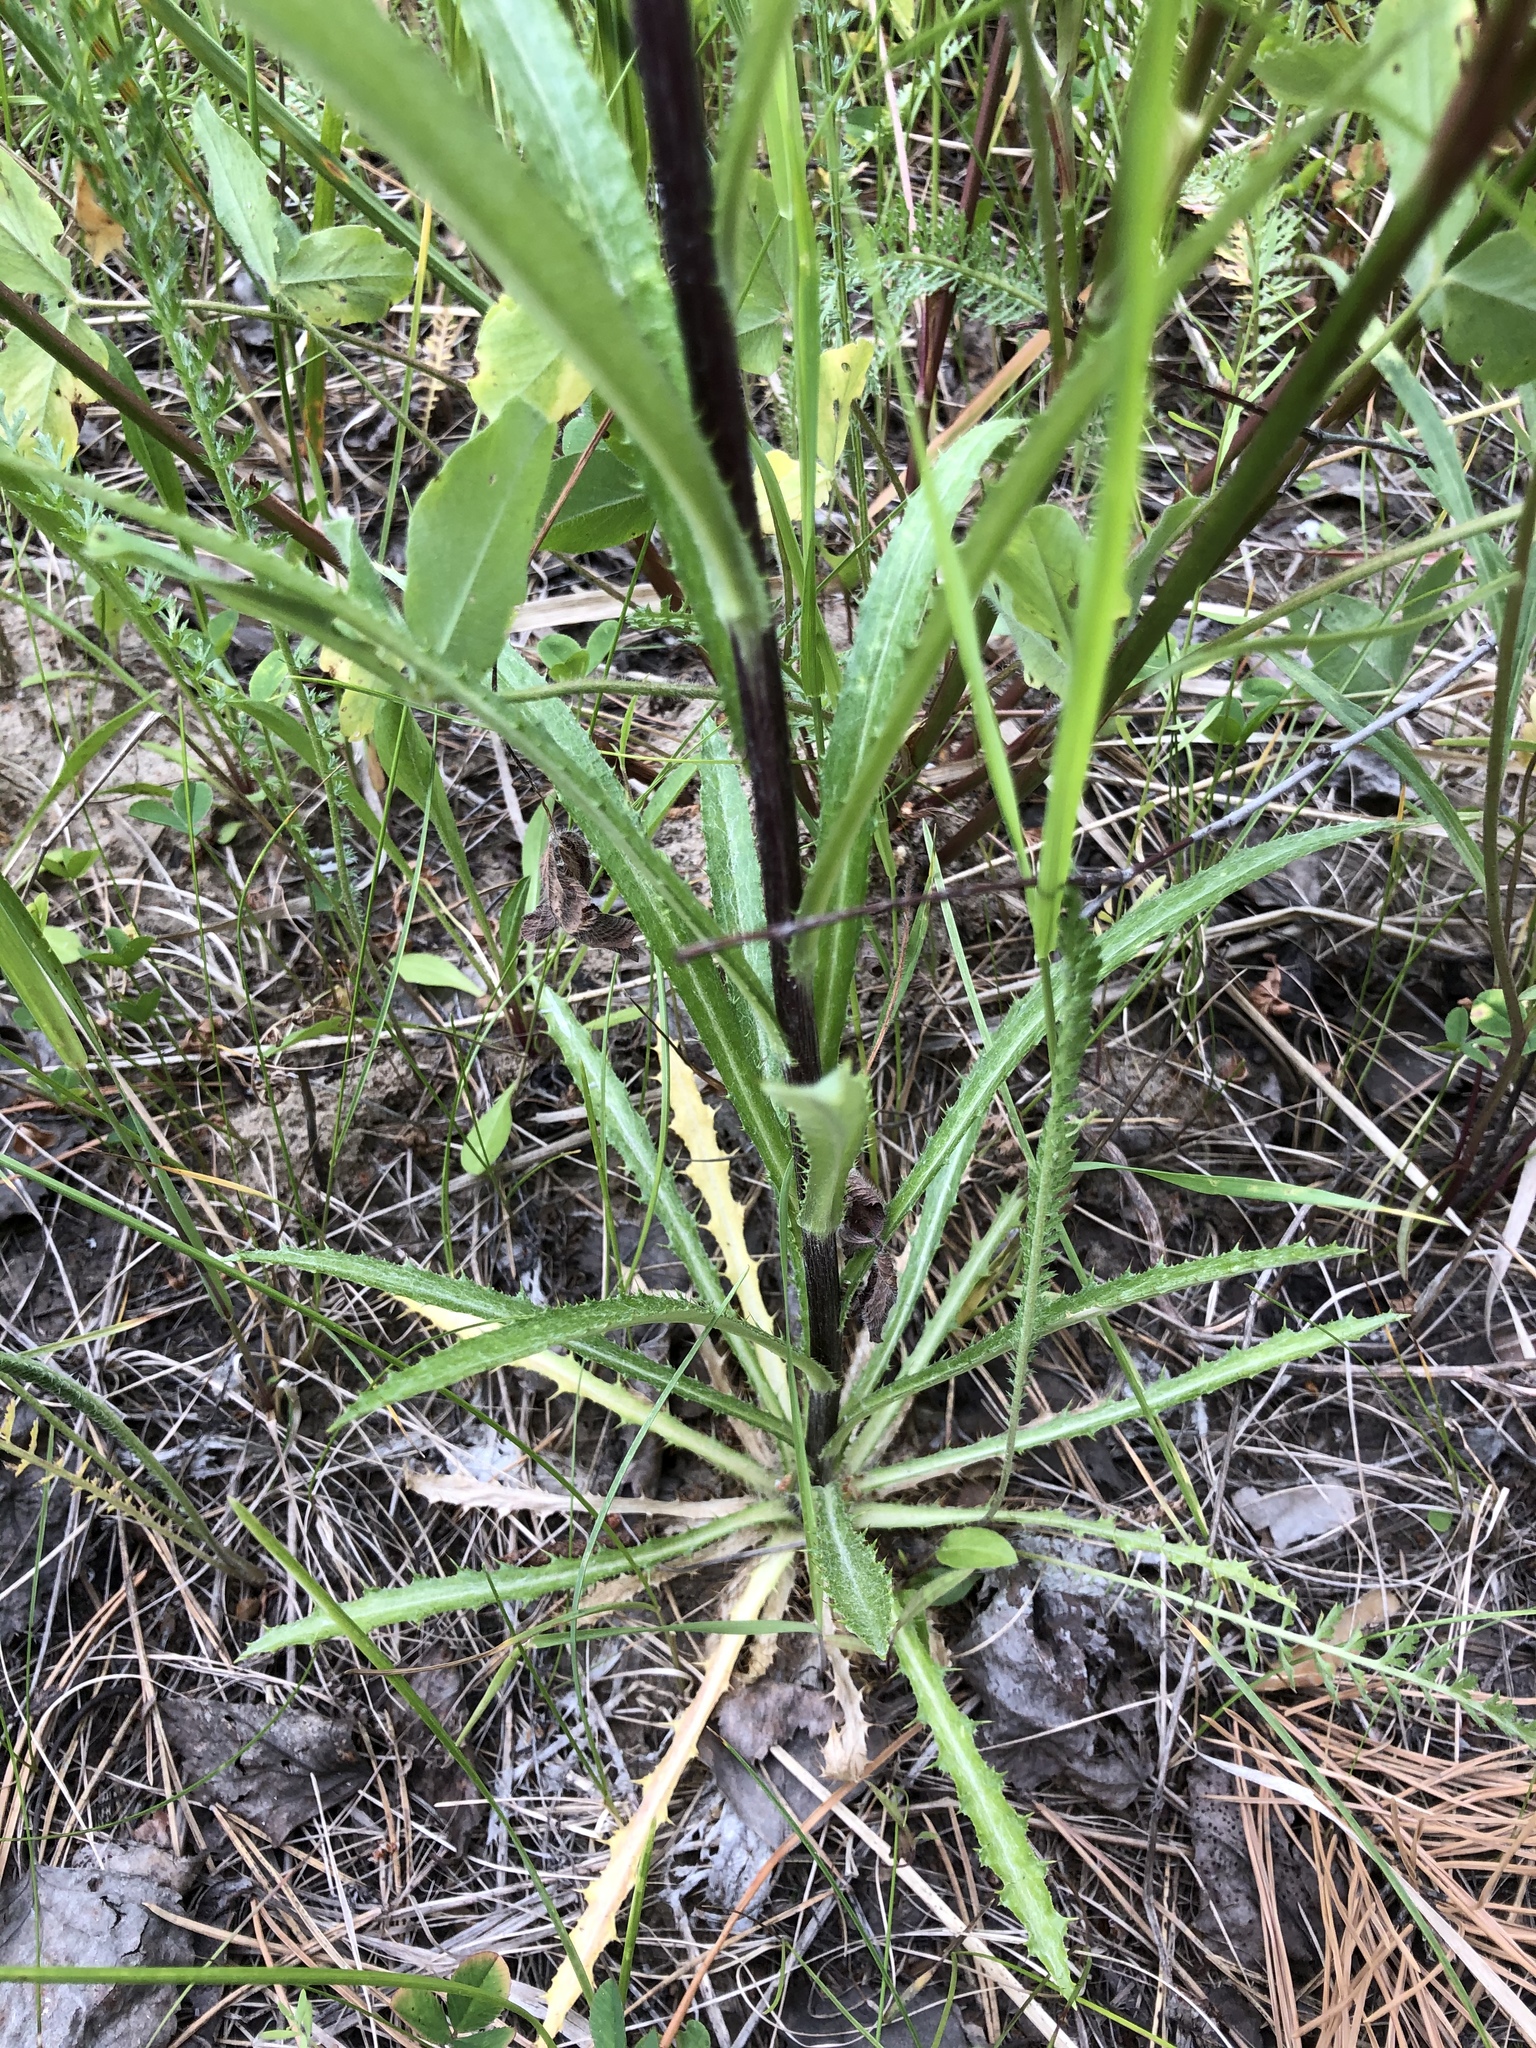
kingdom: Plantae
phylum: Tracheophyta
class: Magnoliopsida
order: Asterales
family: Asteraceae
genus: Carlina
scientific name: Carlina biebersteinii
